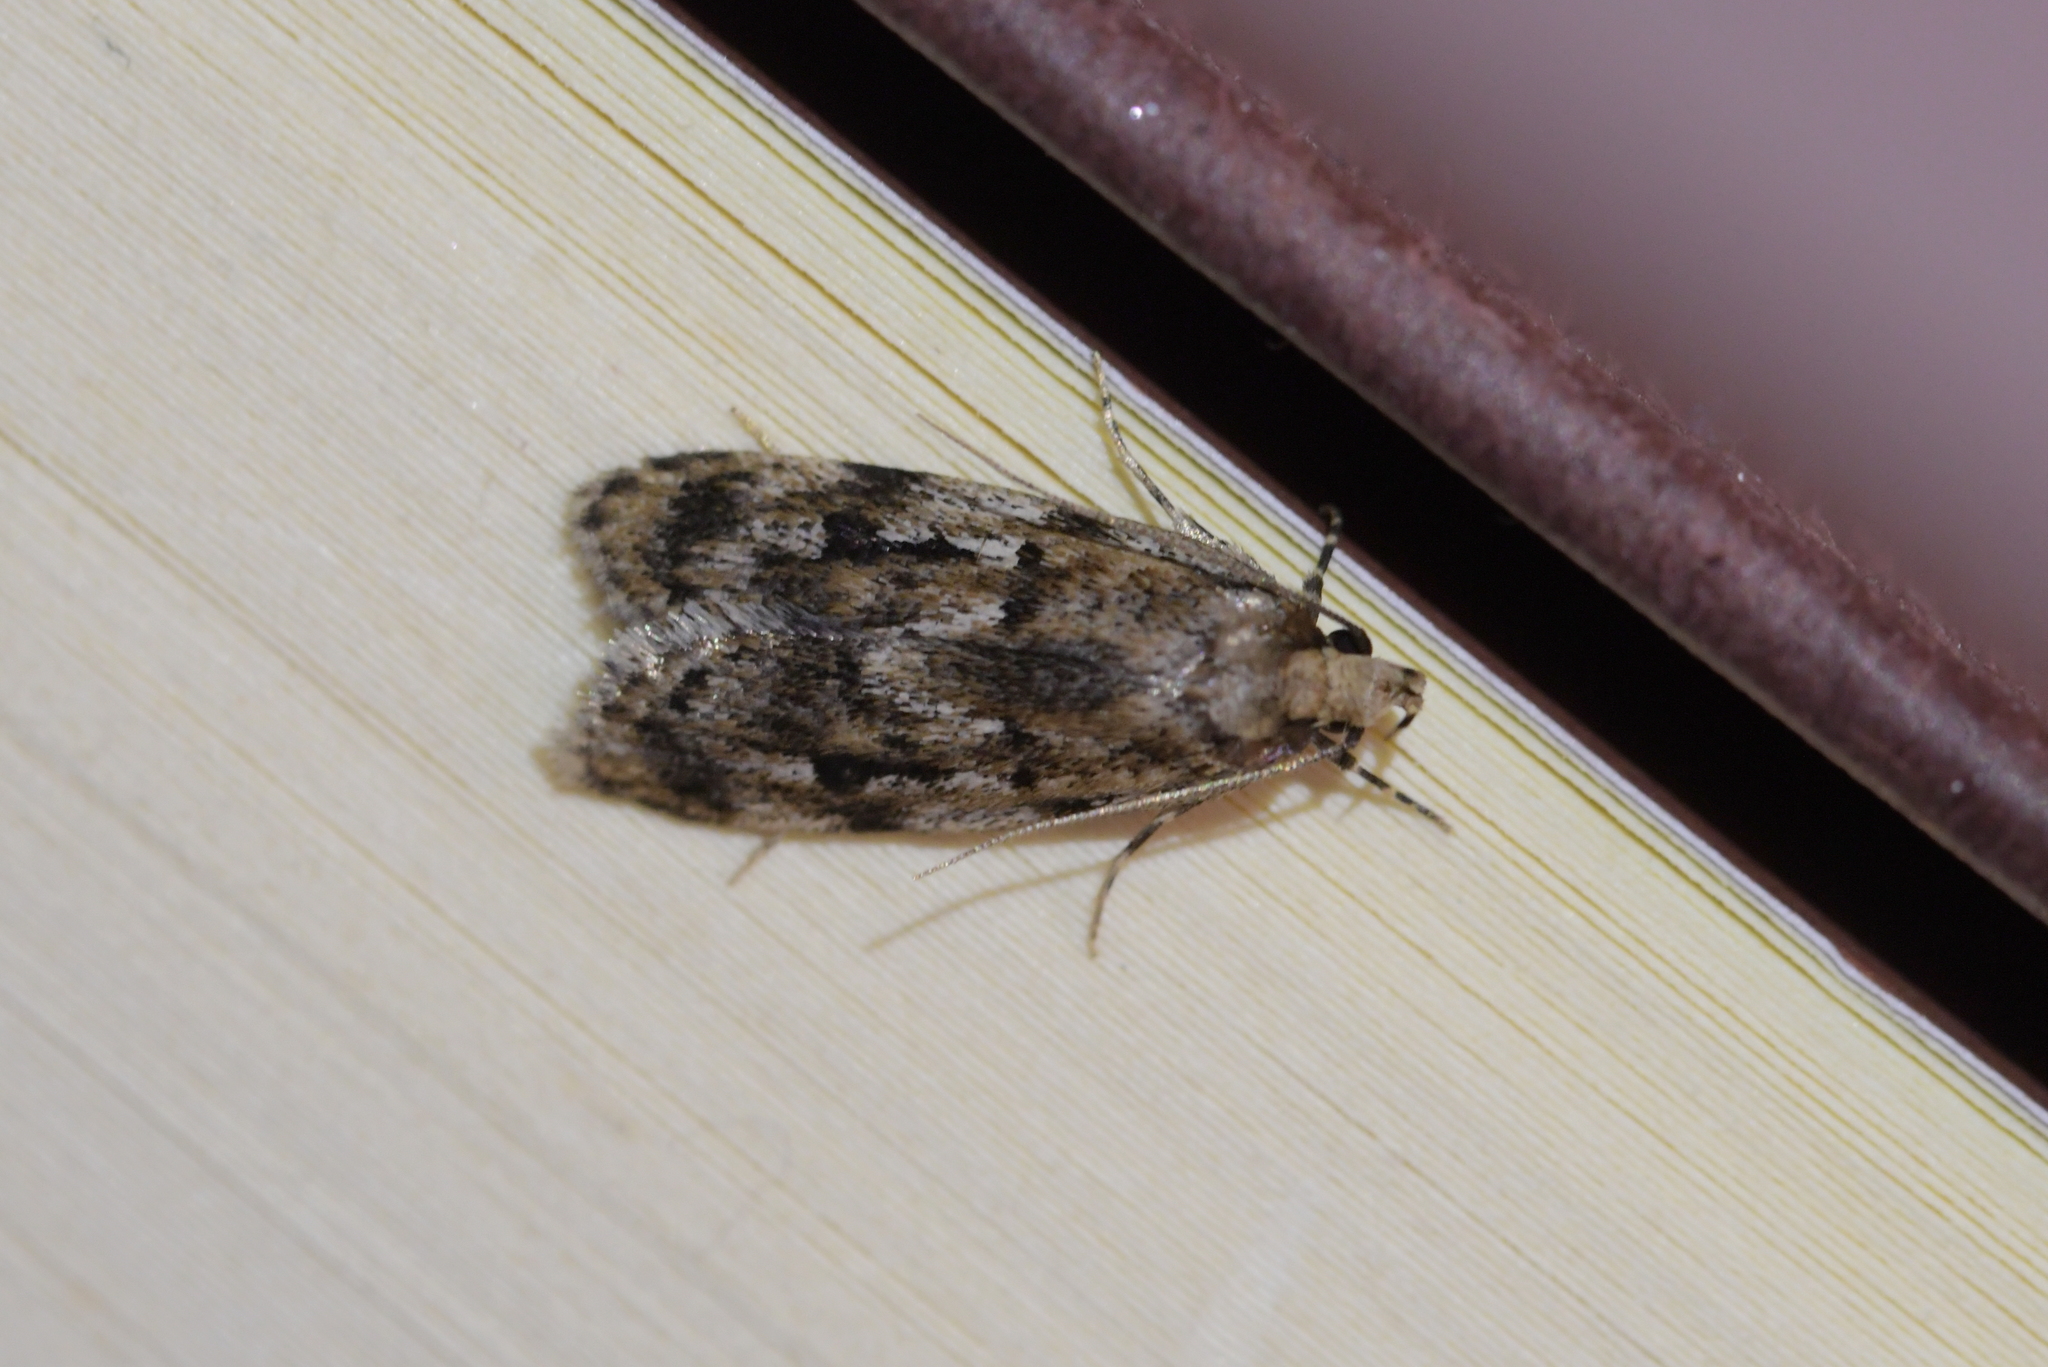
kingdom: Animalia
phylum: Arthropoda
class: Insecta
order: Lepidoptera
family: Oecophoridae
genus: Barea
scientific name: Barea exarcha
